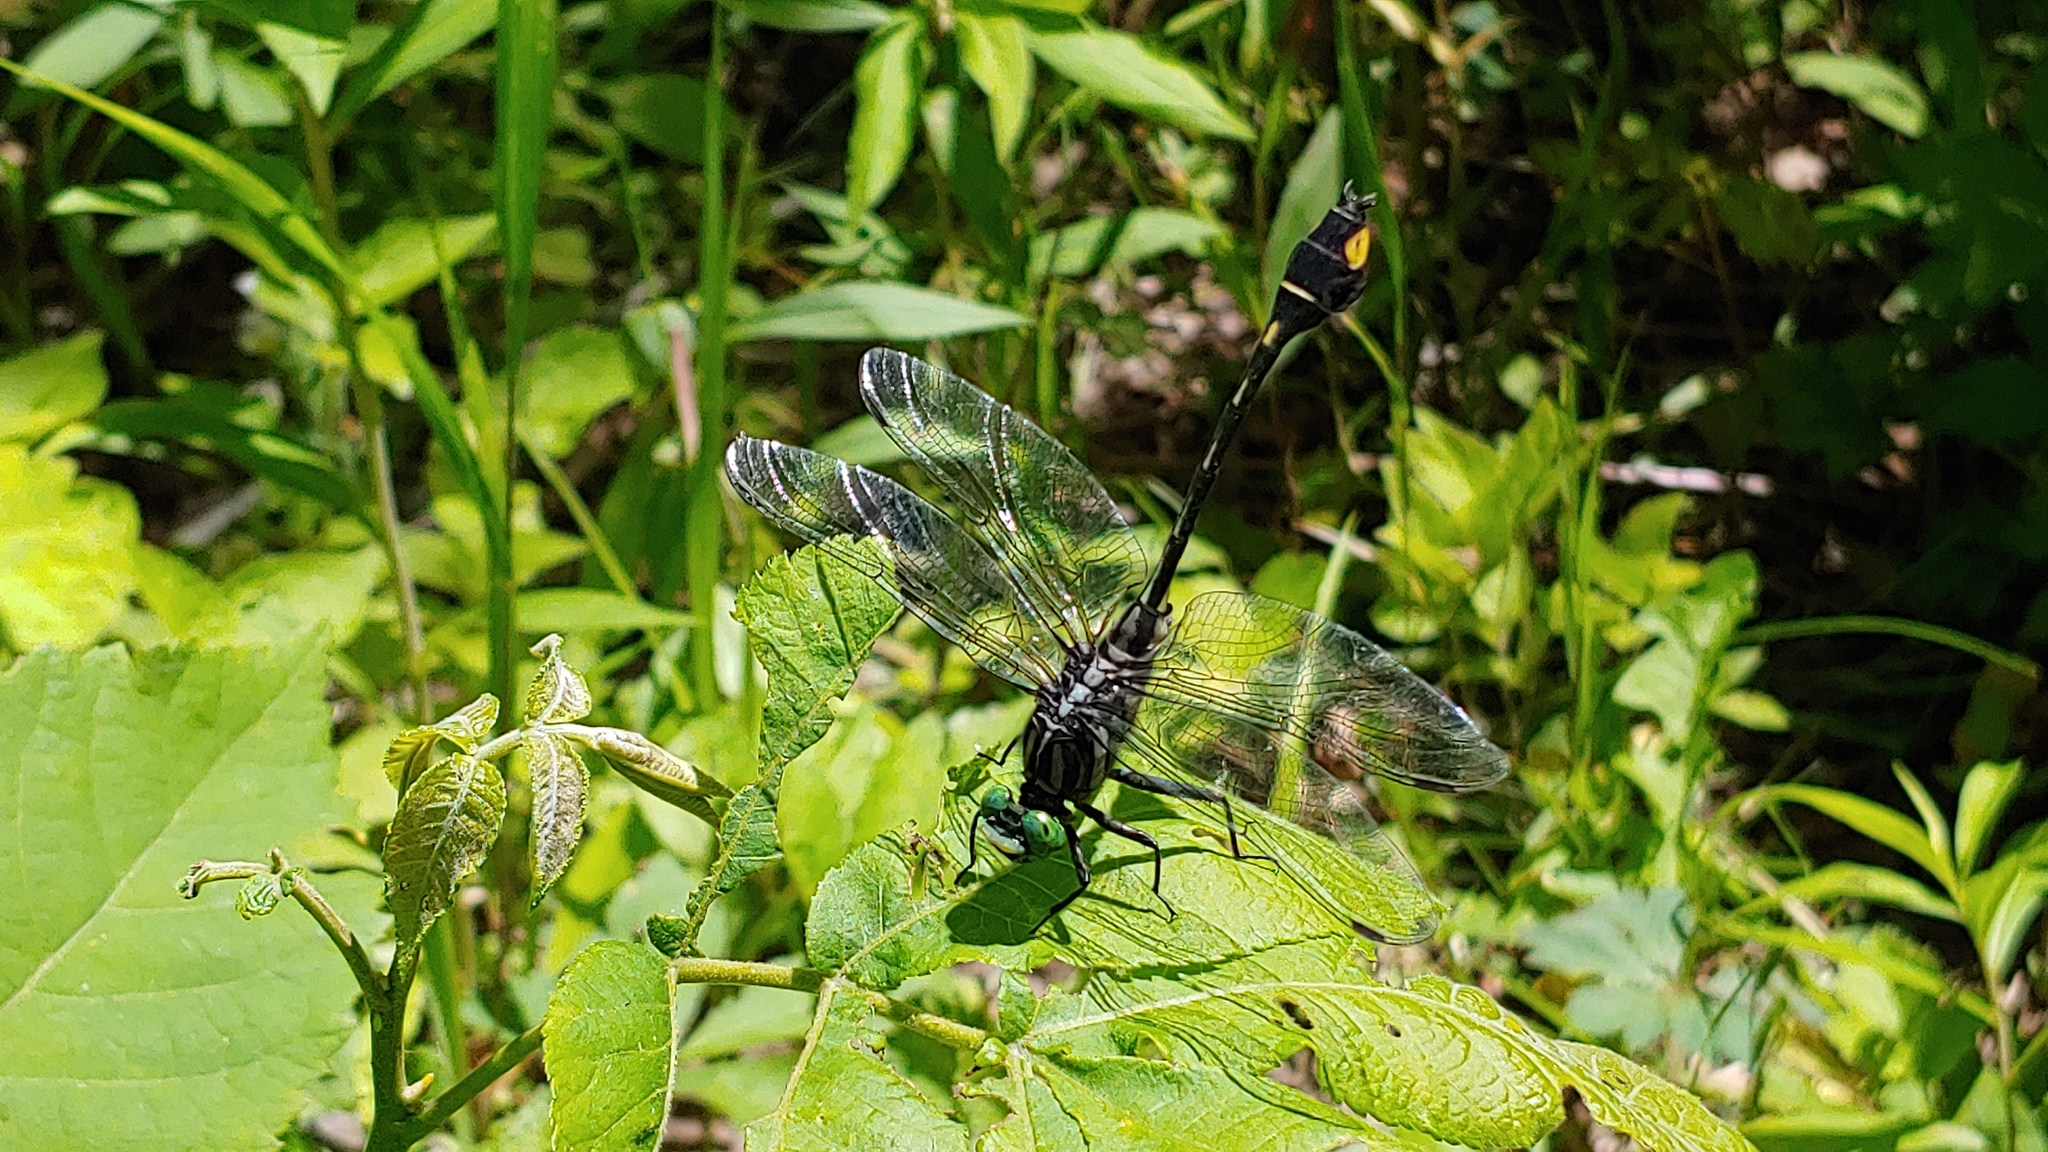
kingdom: Animalia
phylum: Arthropoda
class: Insecta
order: Odonata
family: Gomphidae
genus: Gomphurus
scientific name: Gomphurus vastus
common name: Cobra clubtail
